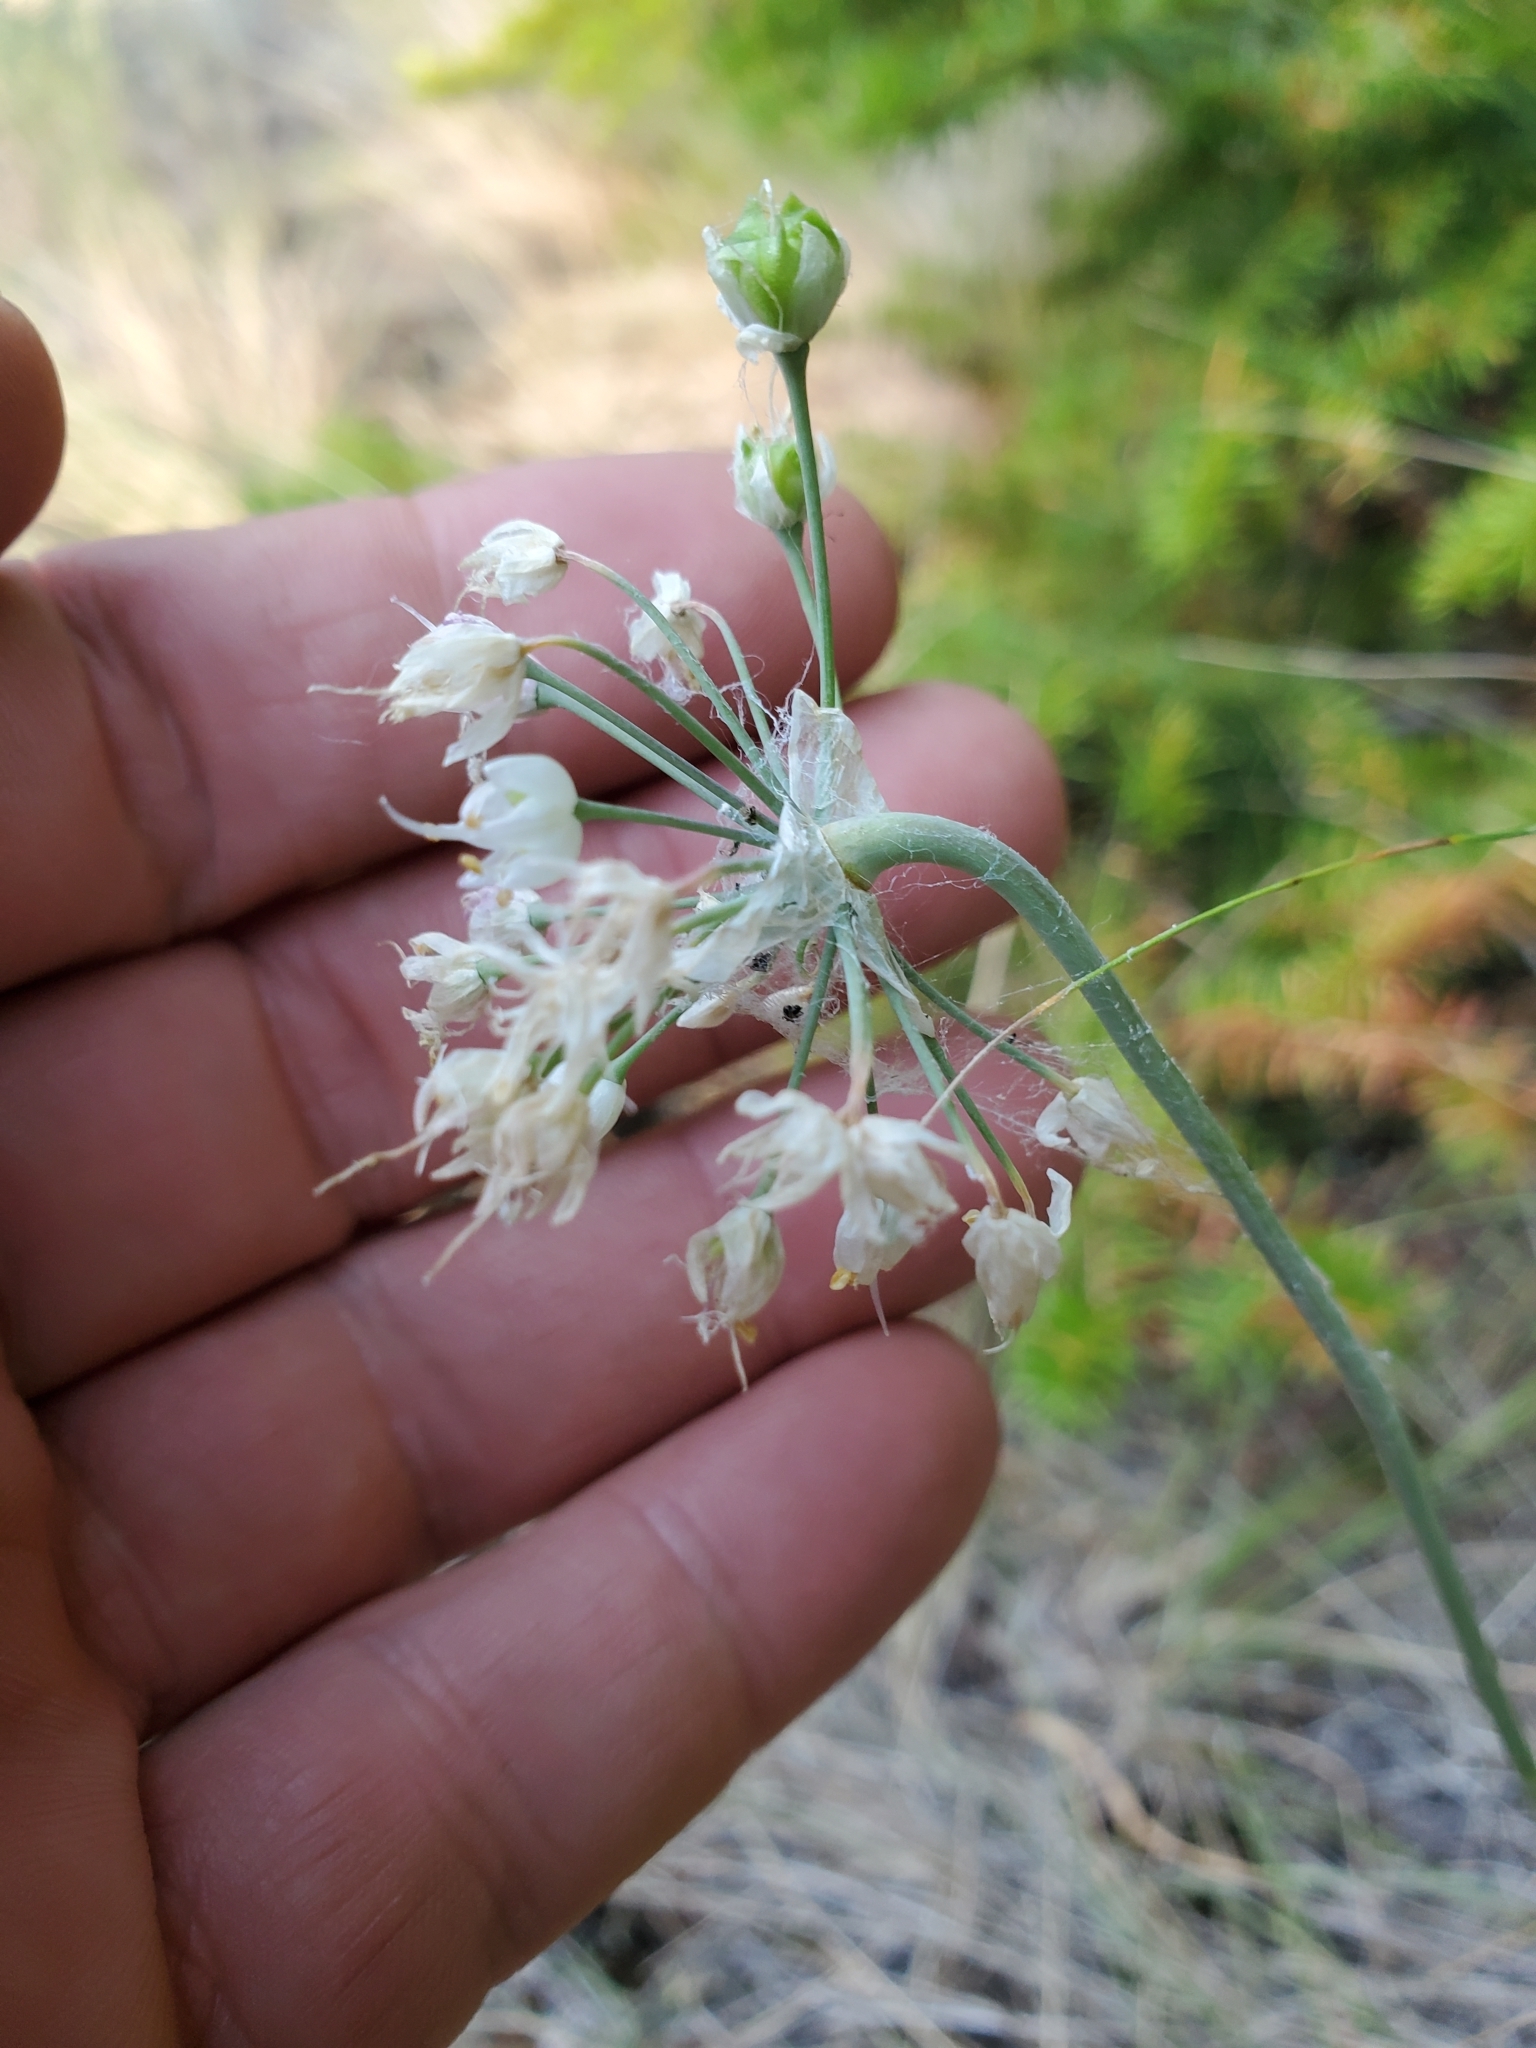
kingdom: Plantae
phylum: Tracheophyta
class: Liliopsida
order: Asparagales
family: Amaryllidaceae
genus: Allium
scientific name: Allium cernuum
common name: Nodding onion
